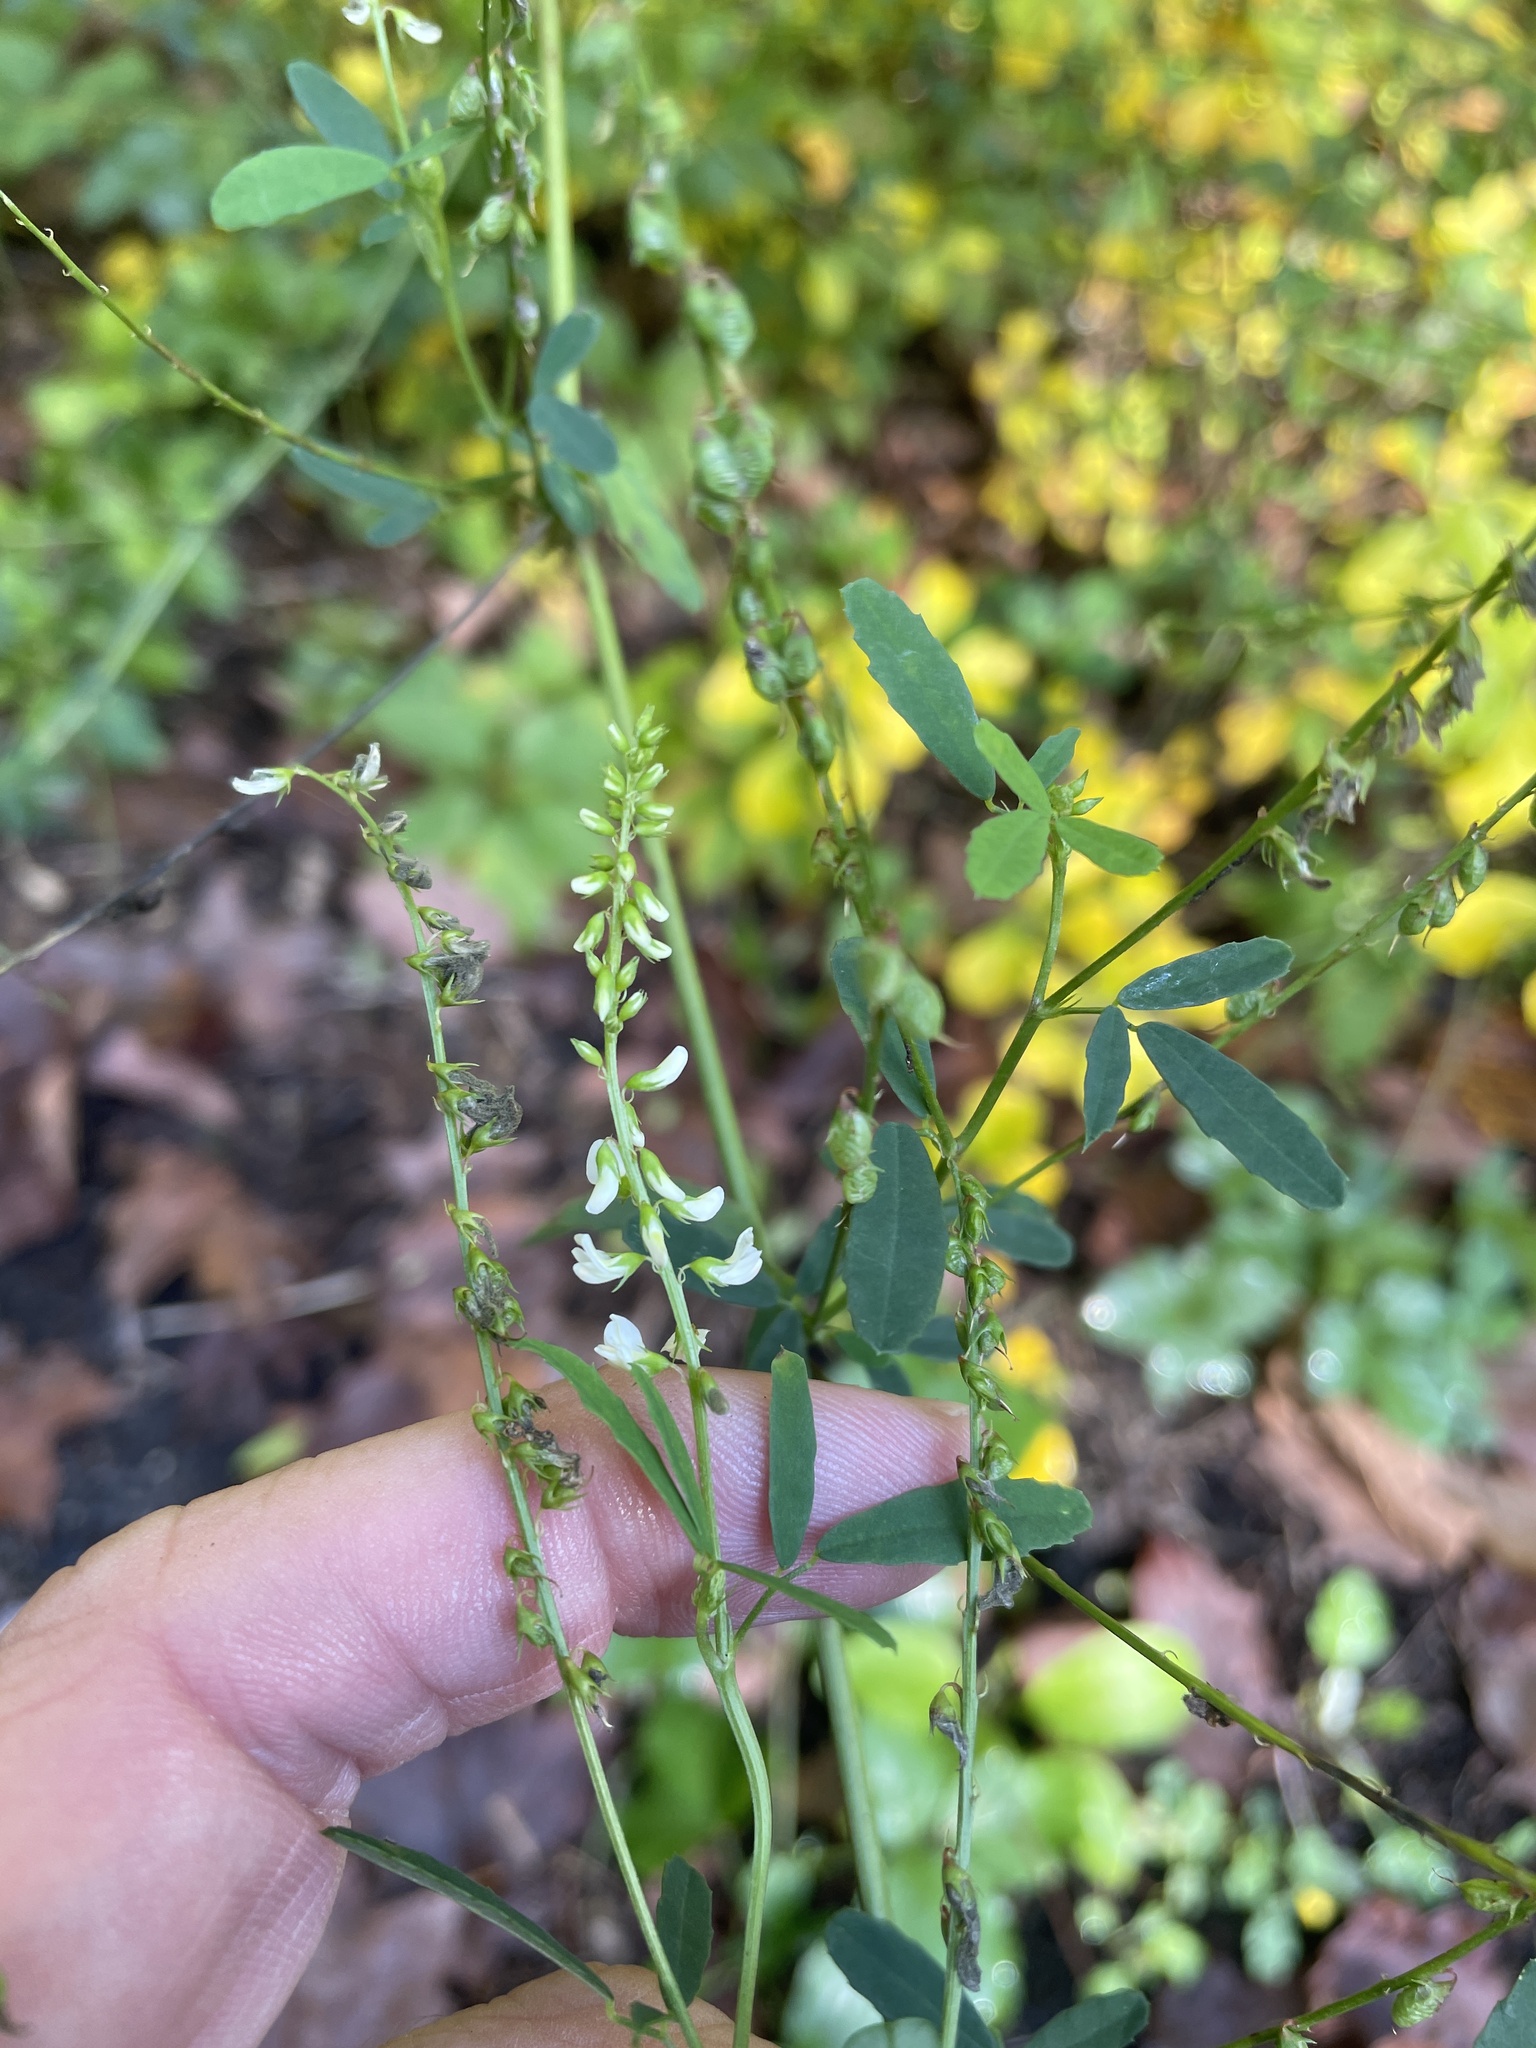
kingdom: Plantae
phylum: Tracheophyta
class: Magnoliopsida
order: Fabales
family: Fabaceae
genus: Melilotus
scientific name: Melilotus albus
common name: White melilot
